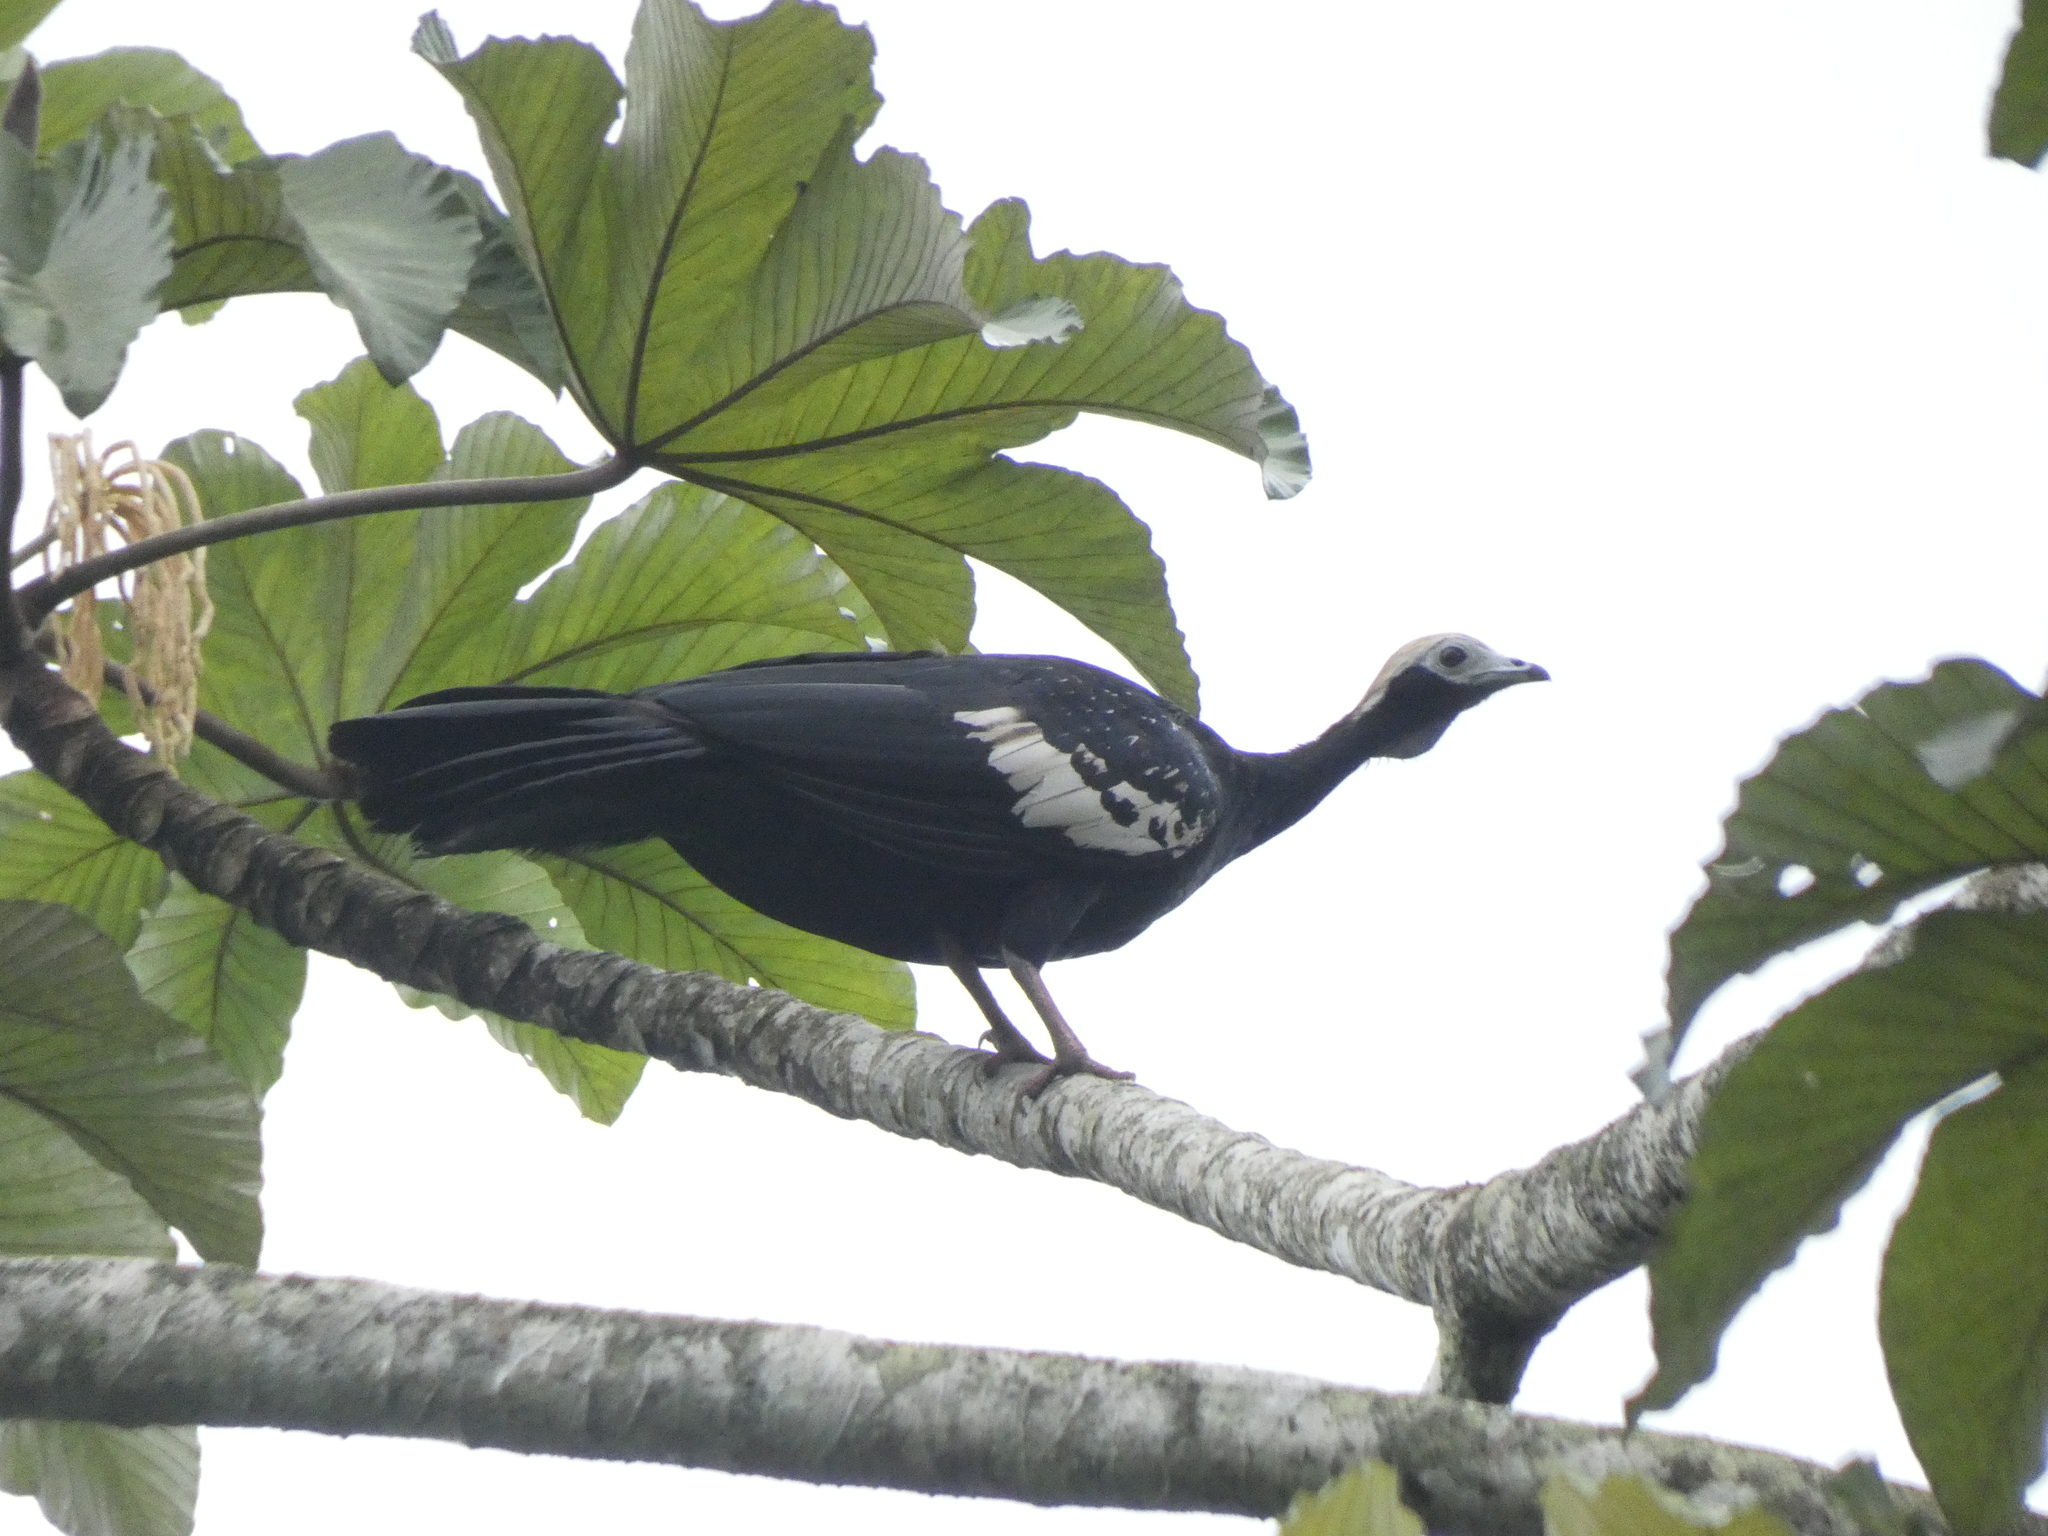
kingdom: Animalia
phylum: Chordata
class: Aves
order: Galliformes
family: Cracidae
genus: Pipile
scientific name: Pipile cumanensis
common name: Blue-throated piping-guan
